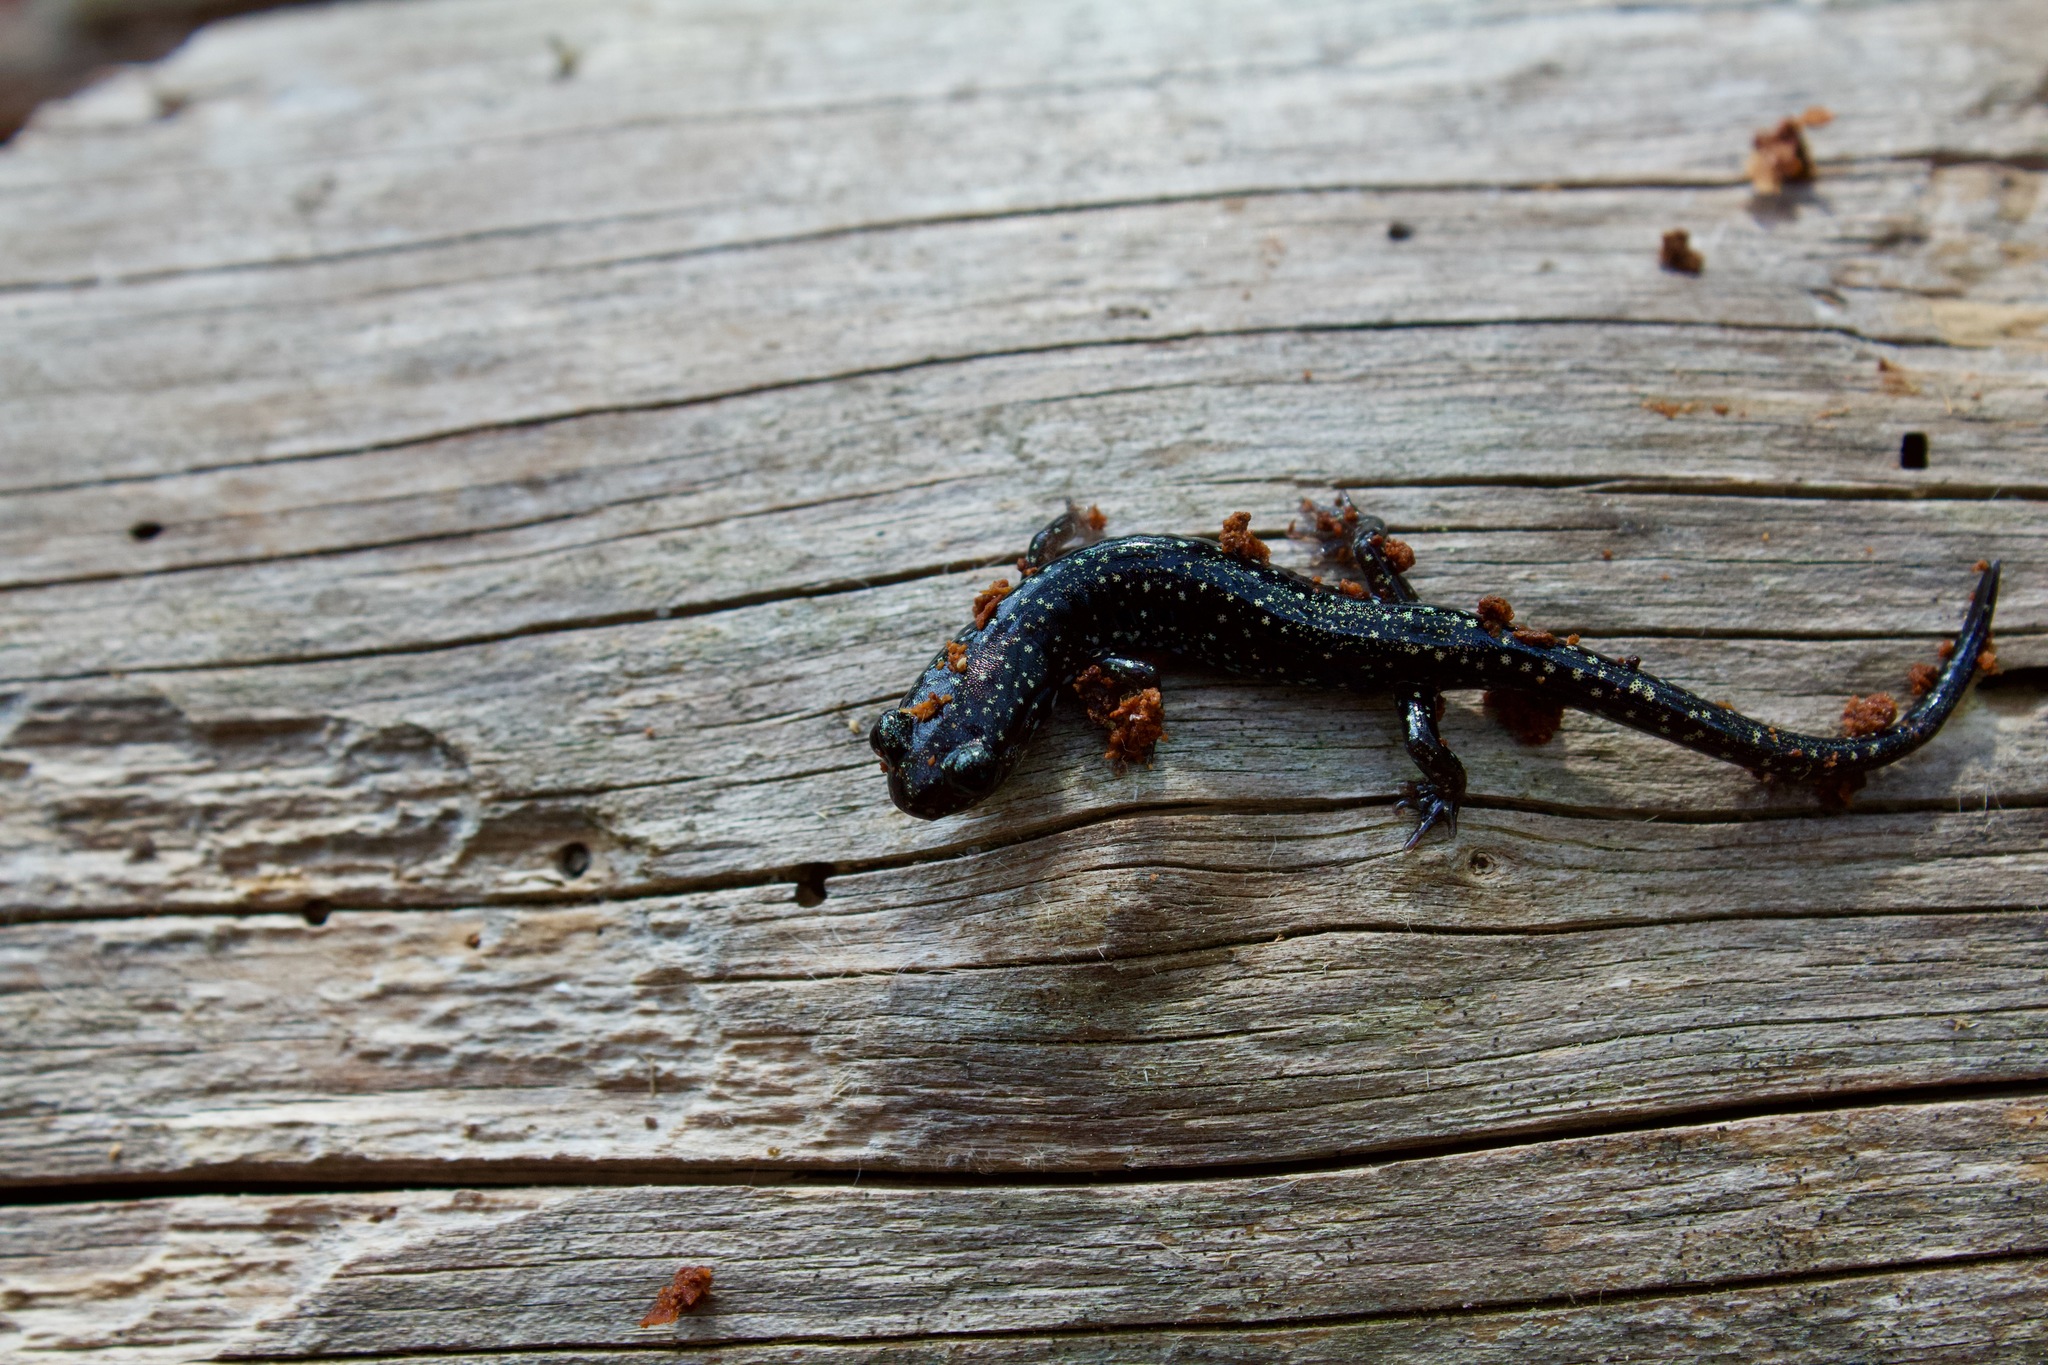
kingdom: Animalia
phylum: Chordata
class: Amphibia
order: Caudata
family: Plethodontidae
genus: Plethodon
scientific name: Plethodon grobmani
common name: Southeastern slimy salamander
